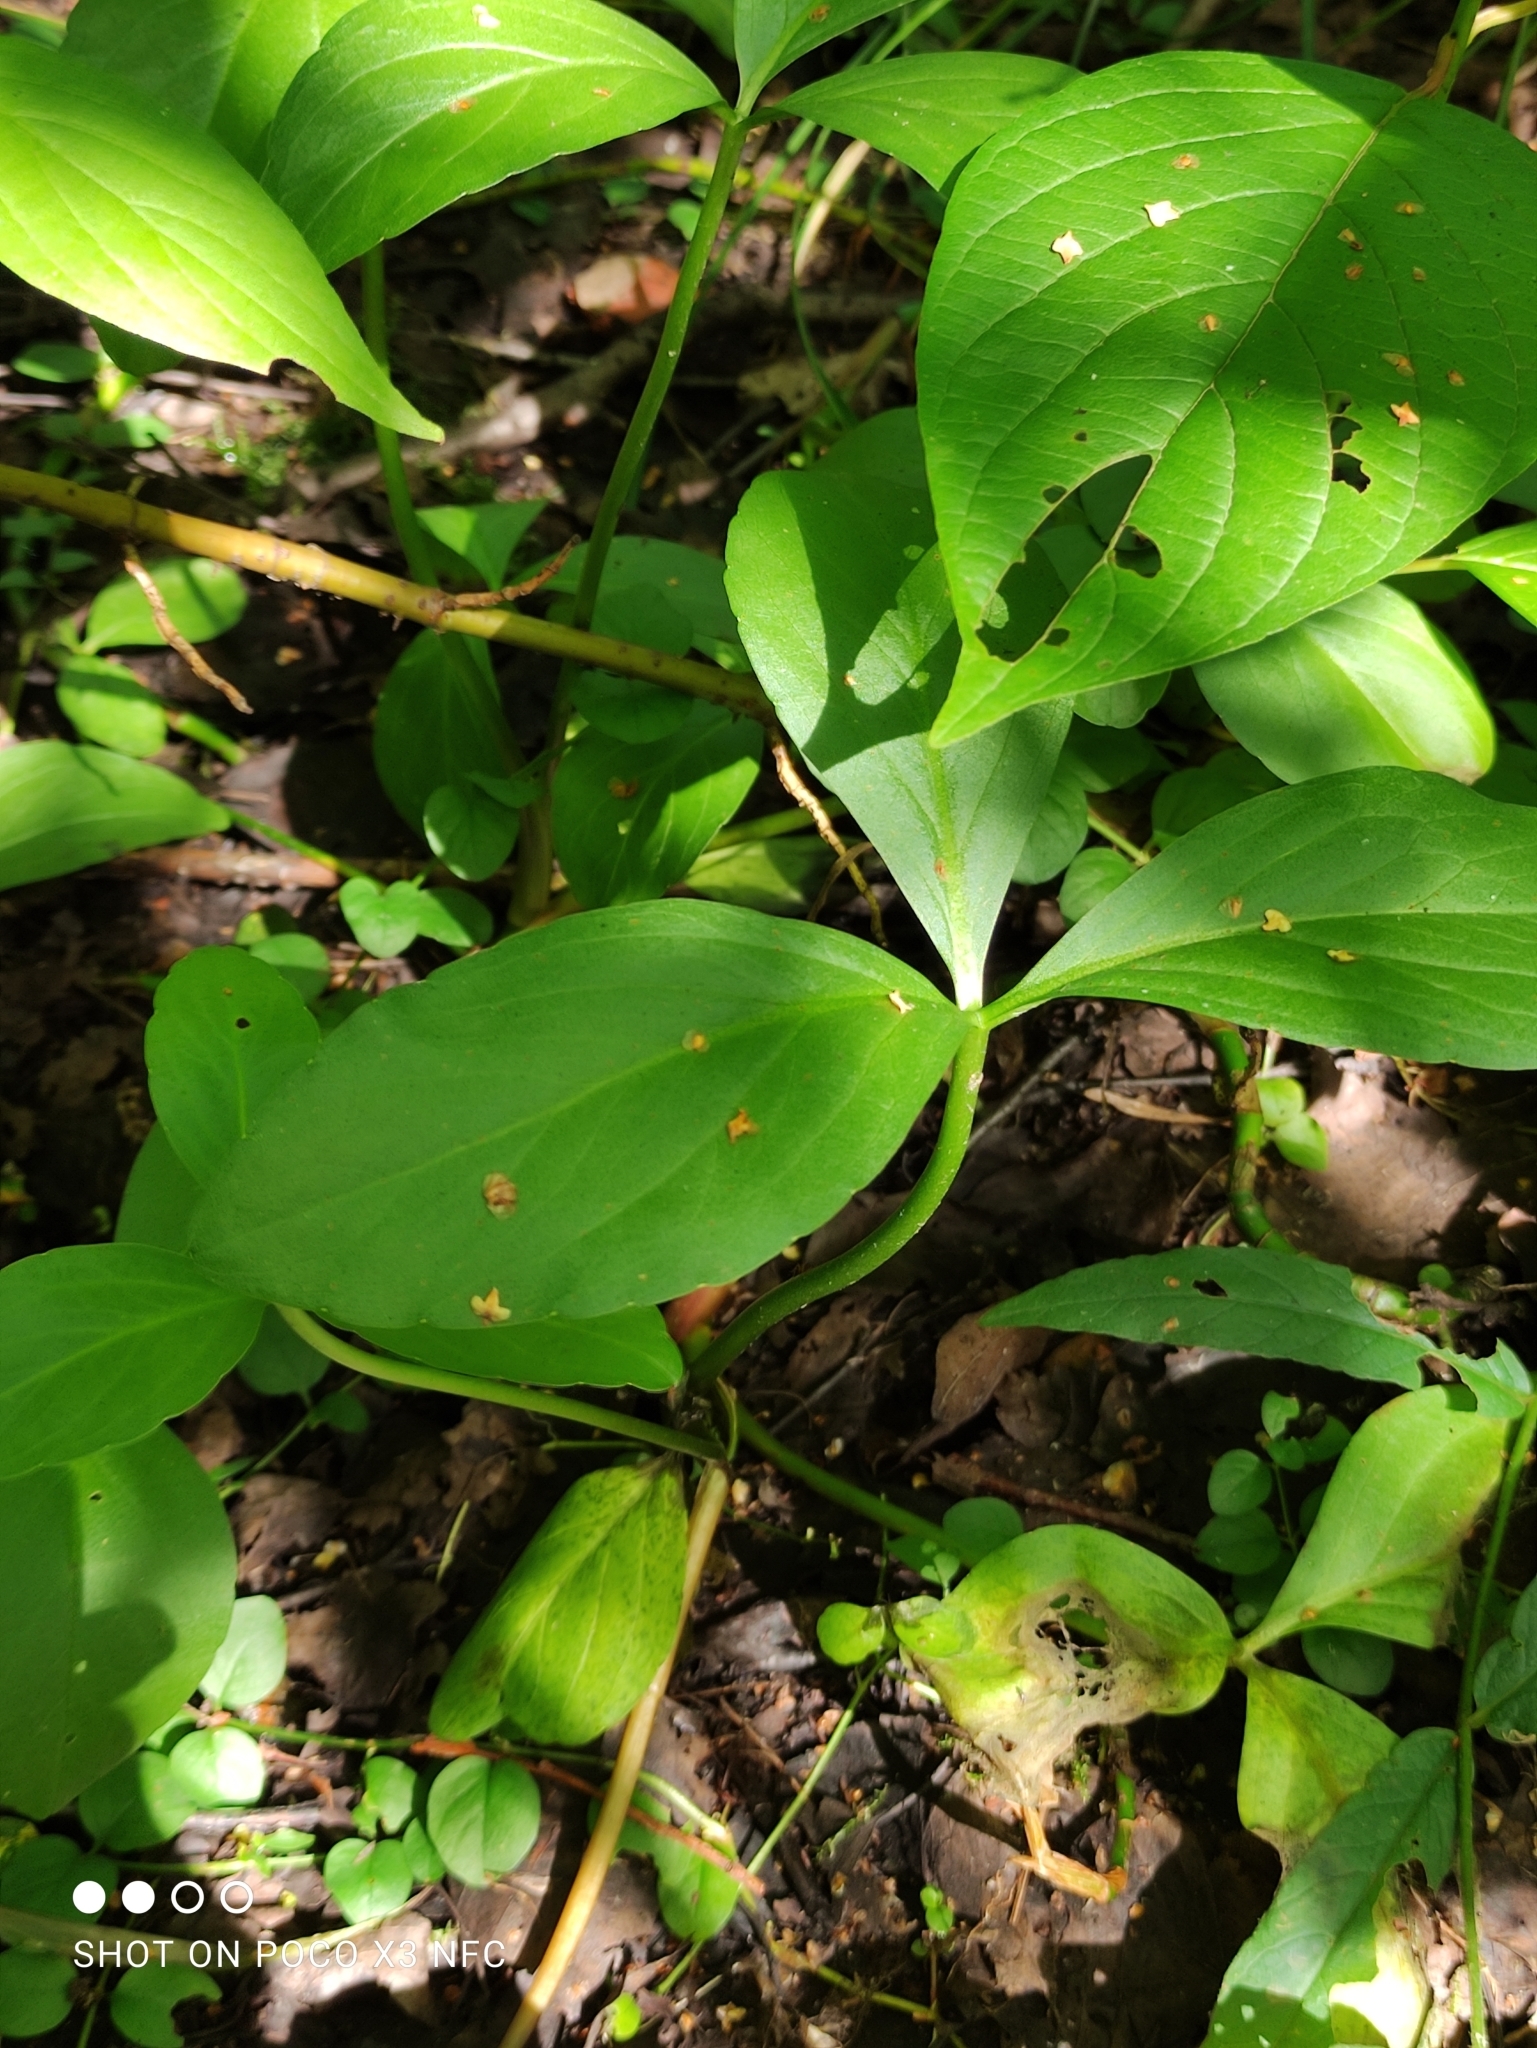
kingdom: Plantae
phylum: Tracheophyta
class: Magnoliopsida
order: Asterales
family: Menyanthaceae
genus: Menyanthes
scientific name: Menyanthes trifoliata
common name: Bogbean
